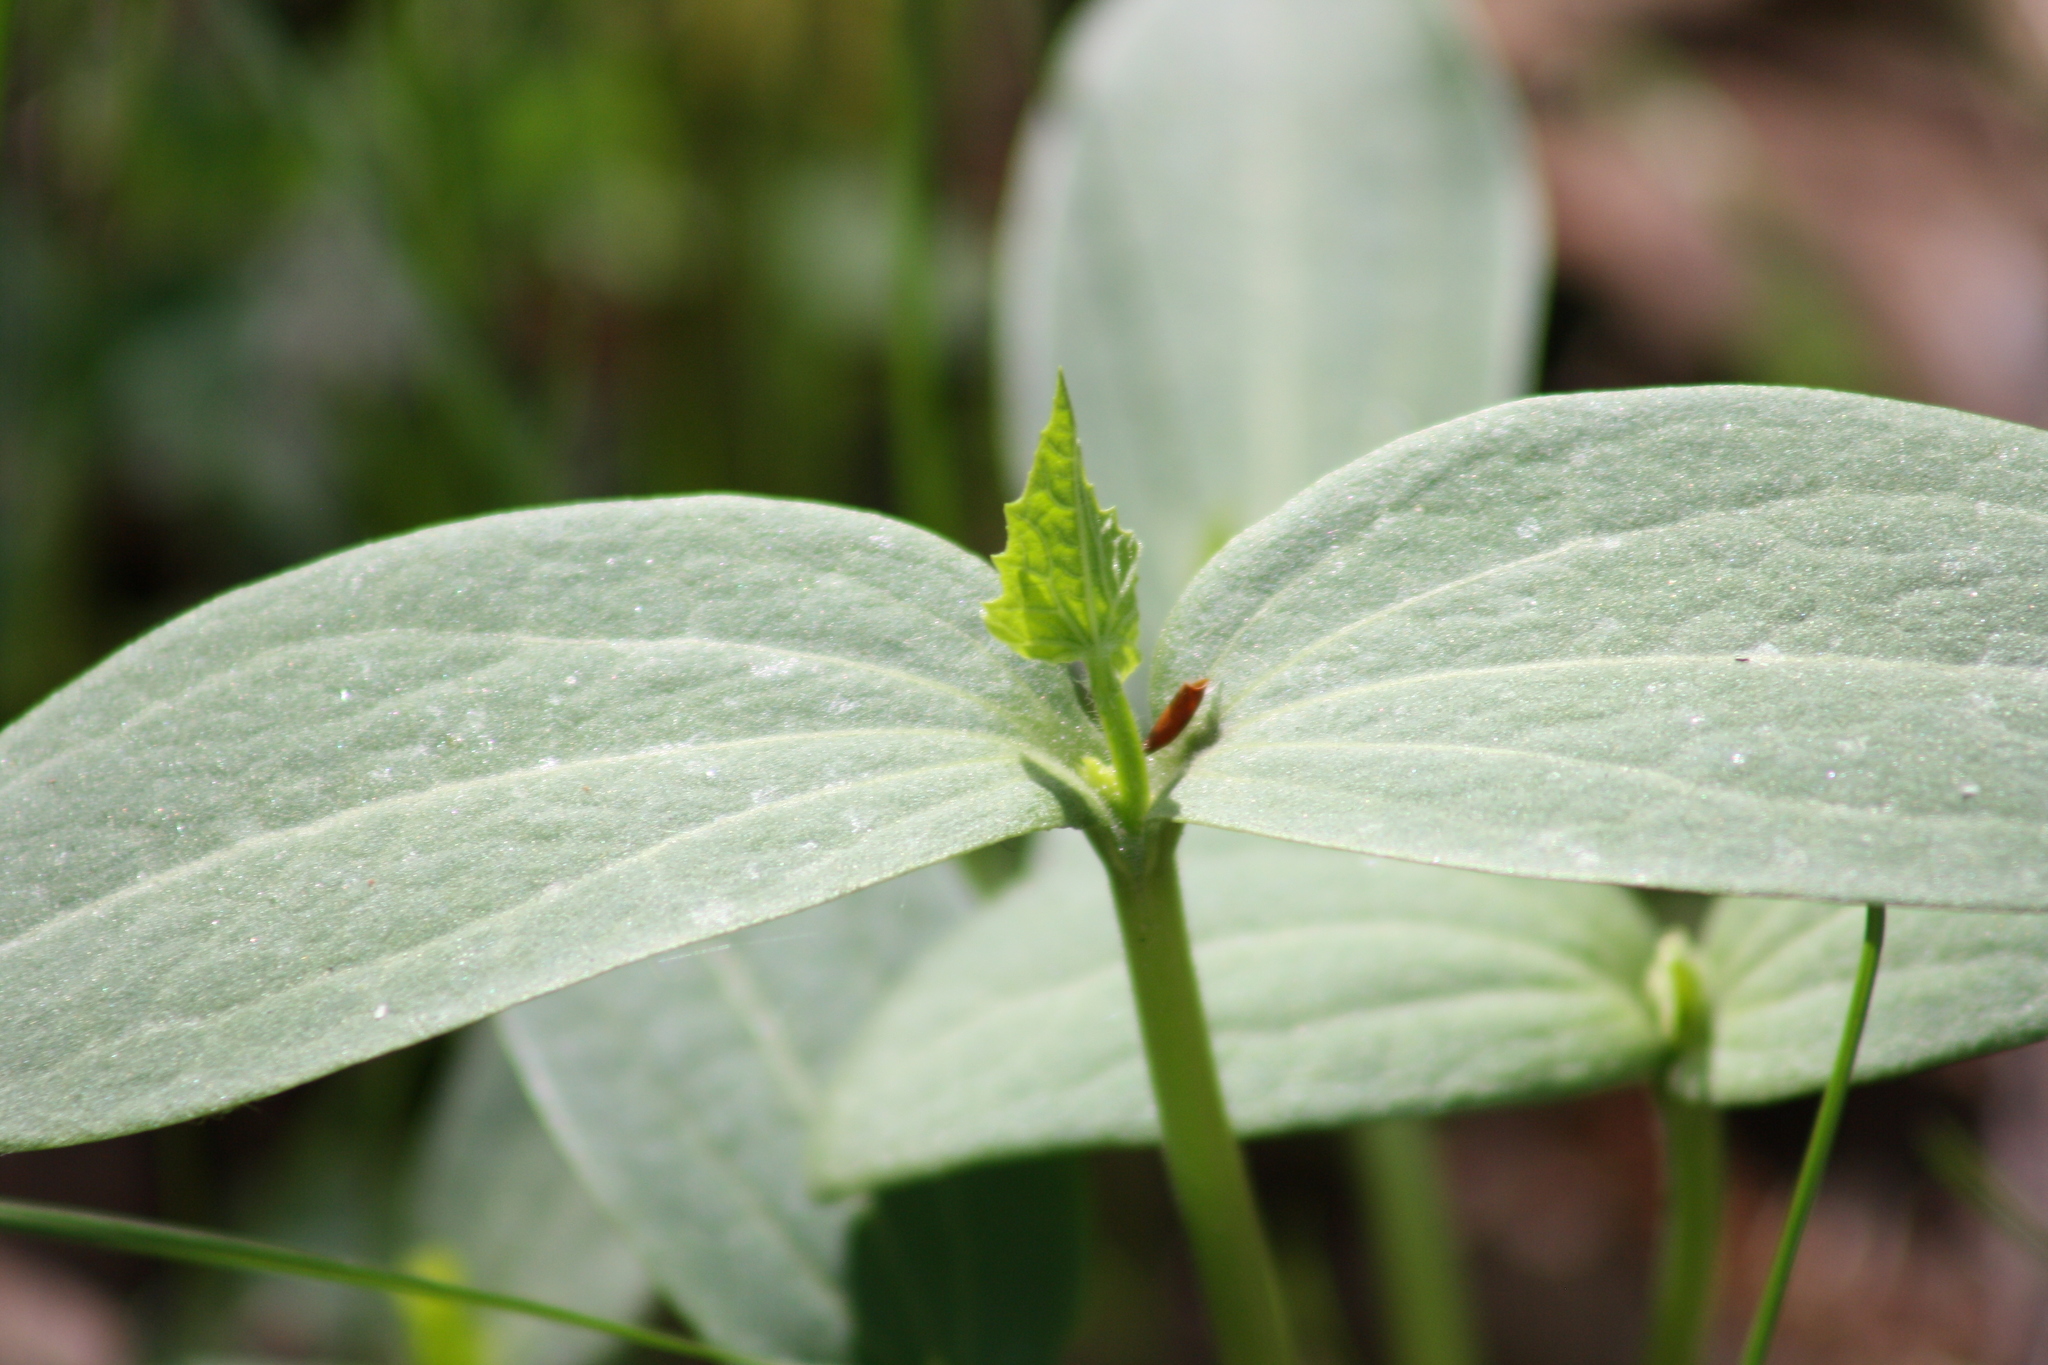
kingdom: Plantae
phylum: Tracheophyta
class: Magnoliopsida
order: Cucurbitales
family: Cucurbitaceae
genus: Echinocystis
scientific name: Echinocystis lobata
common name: Wild cucumber
